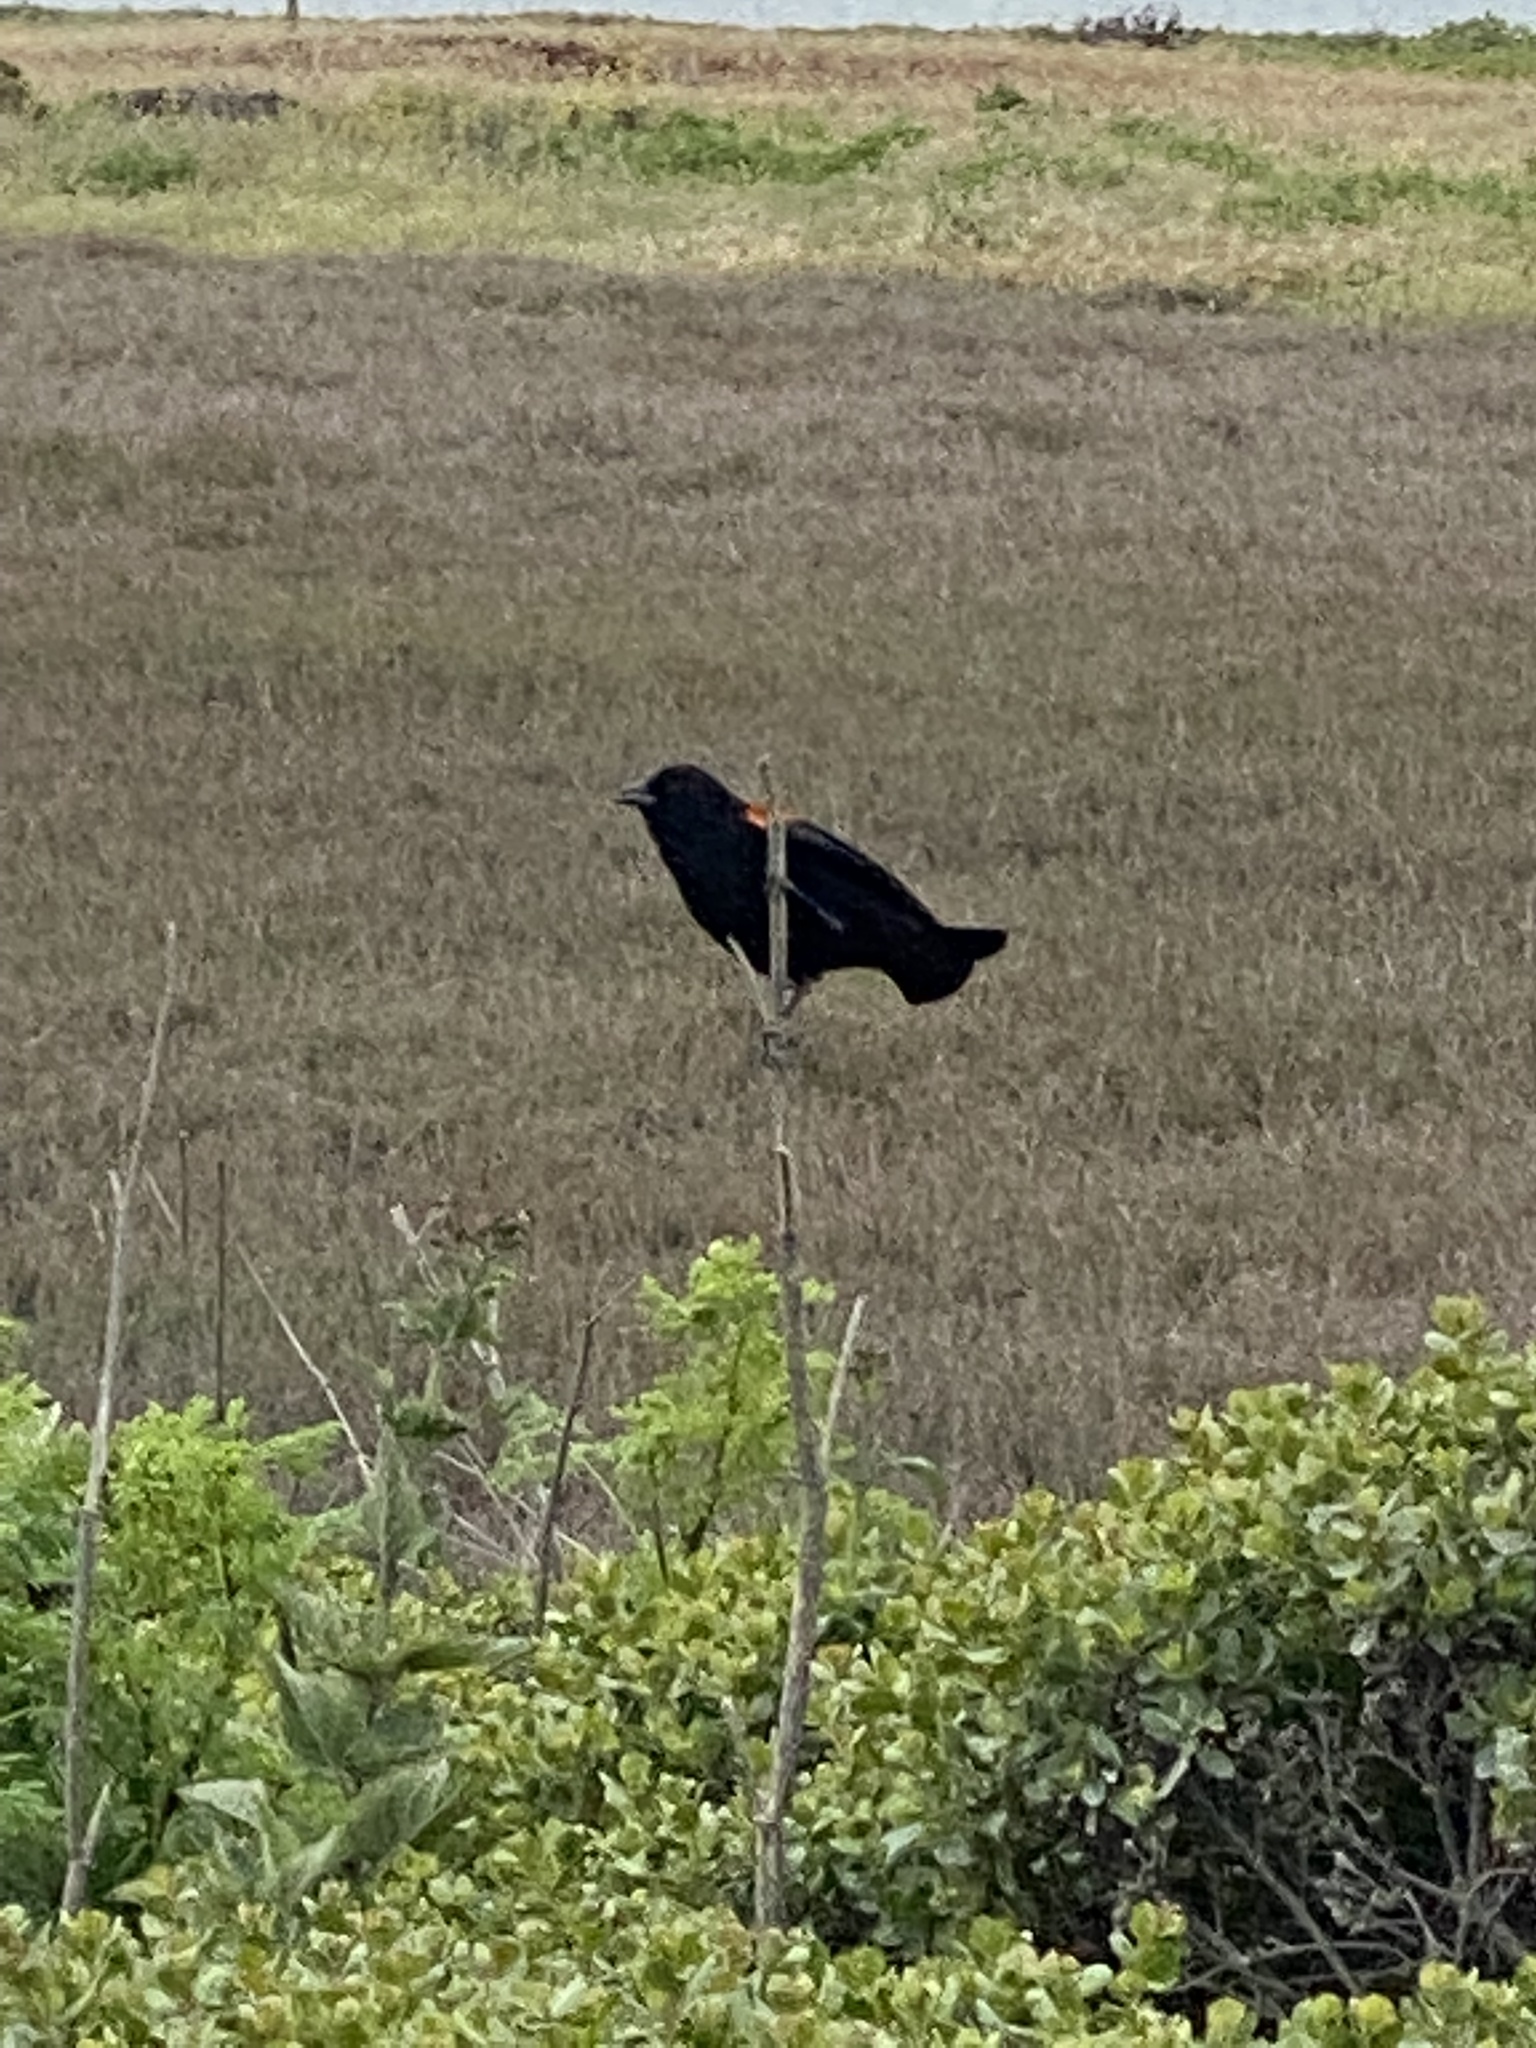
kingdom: Animalia
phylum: Chordata
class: Aves
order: Passeriformes
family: Icteridae
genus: Agelaius
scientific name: Agelaius phoeniceus
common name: Red-winged blackbird
